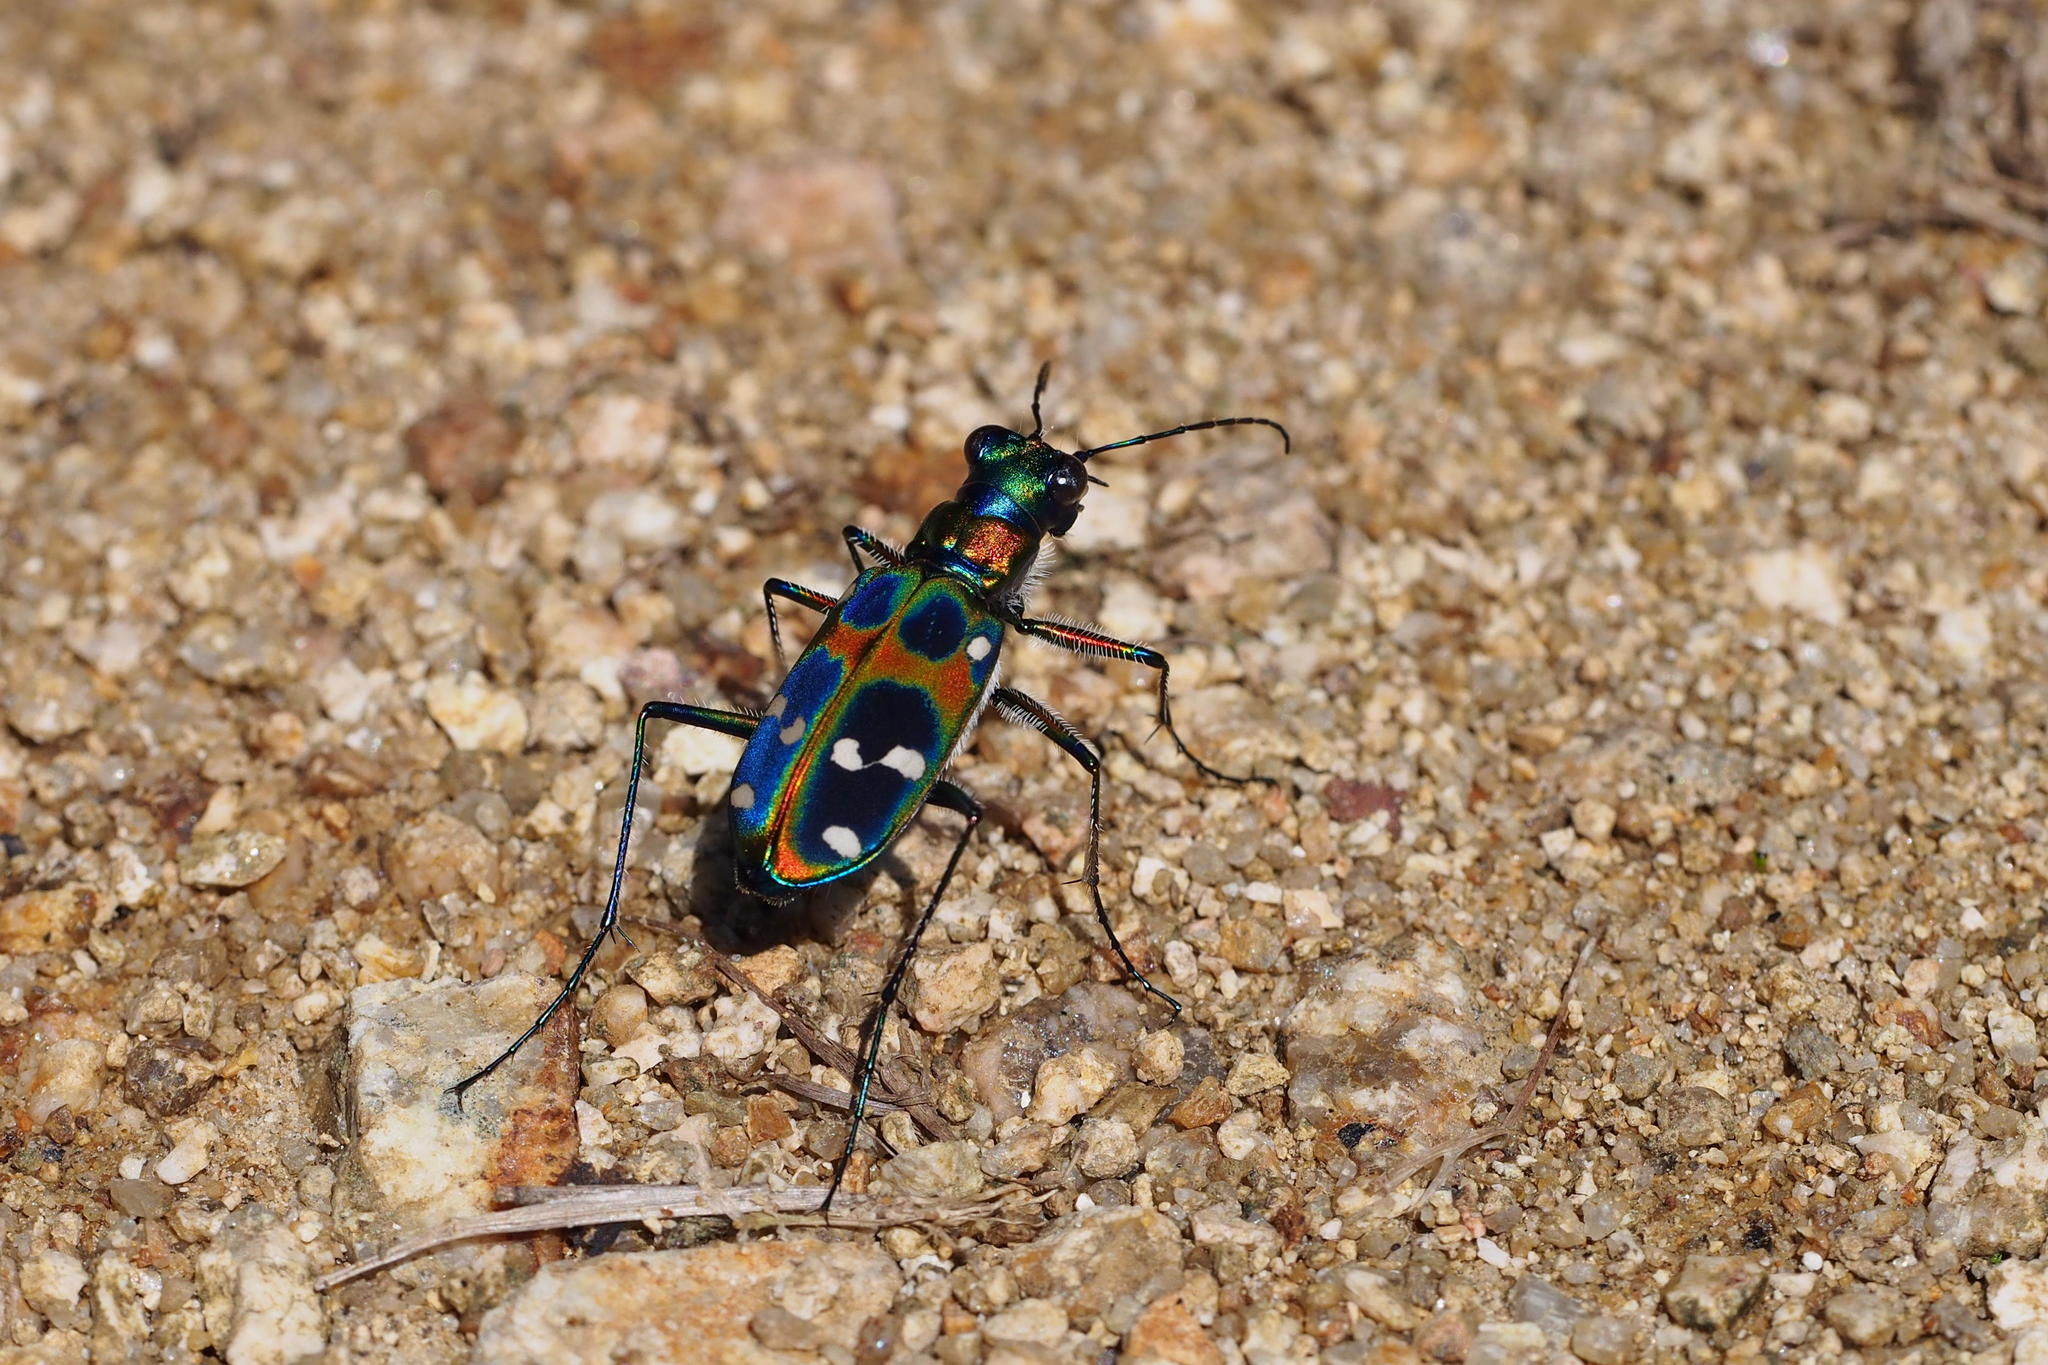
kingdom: Animalia
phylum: Arthropoda
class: Insecta
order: Coleoptera
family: Carabidae
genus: Cicindela
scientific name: Cicindela chinensis
